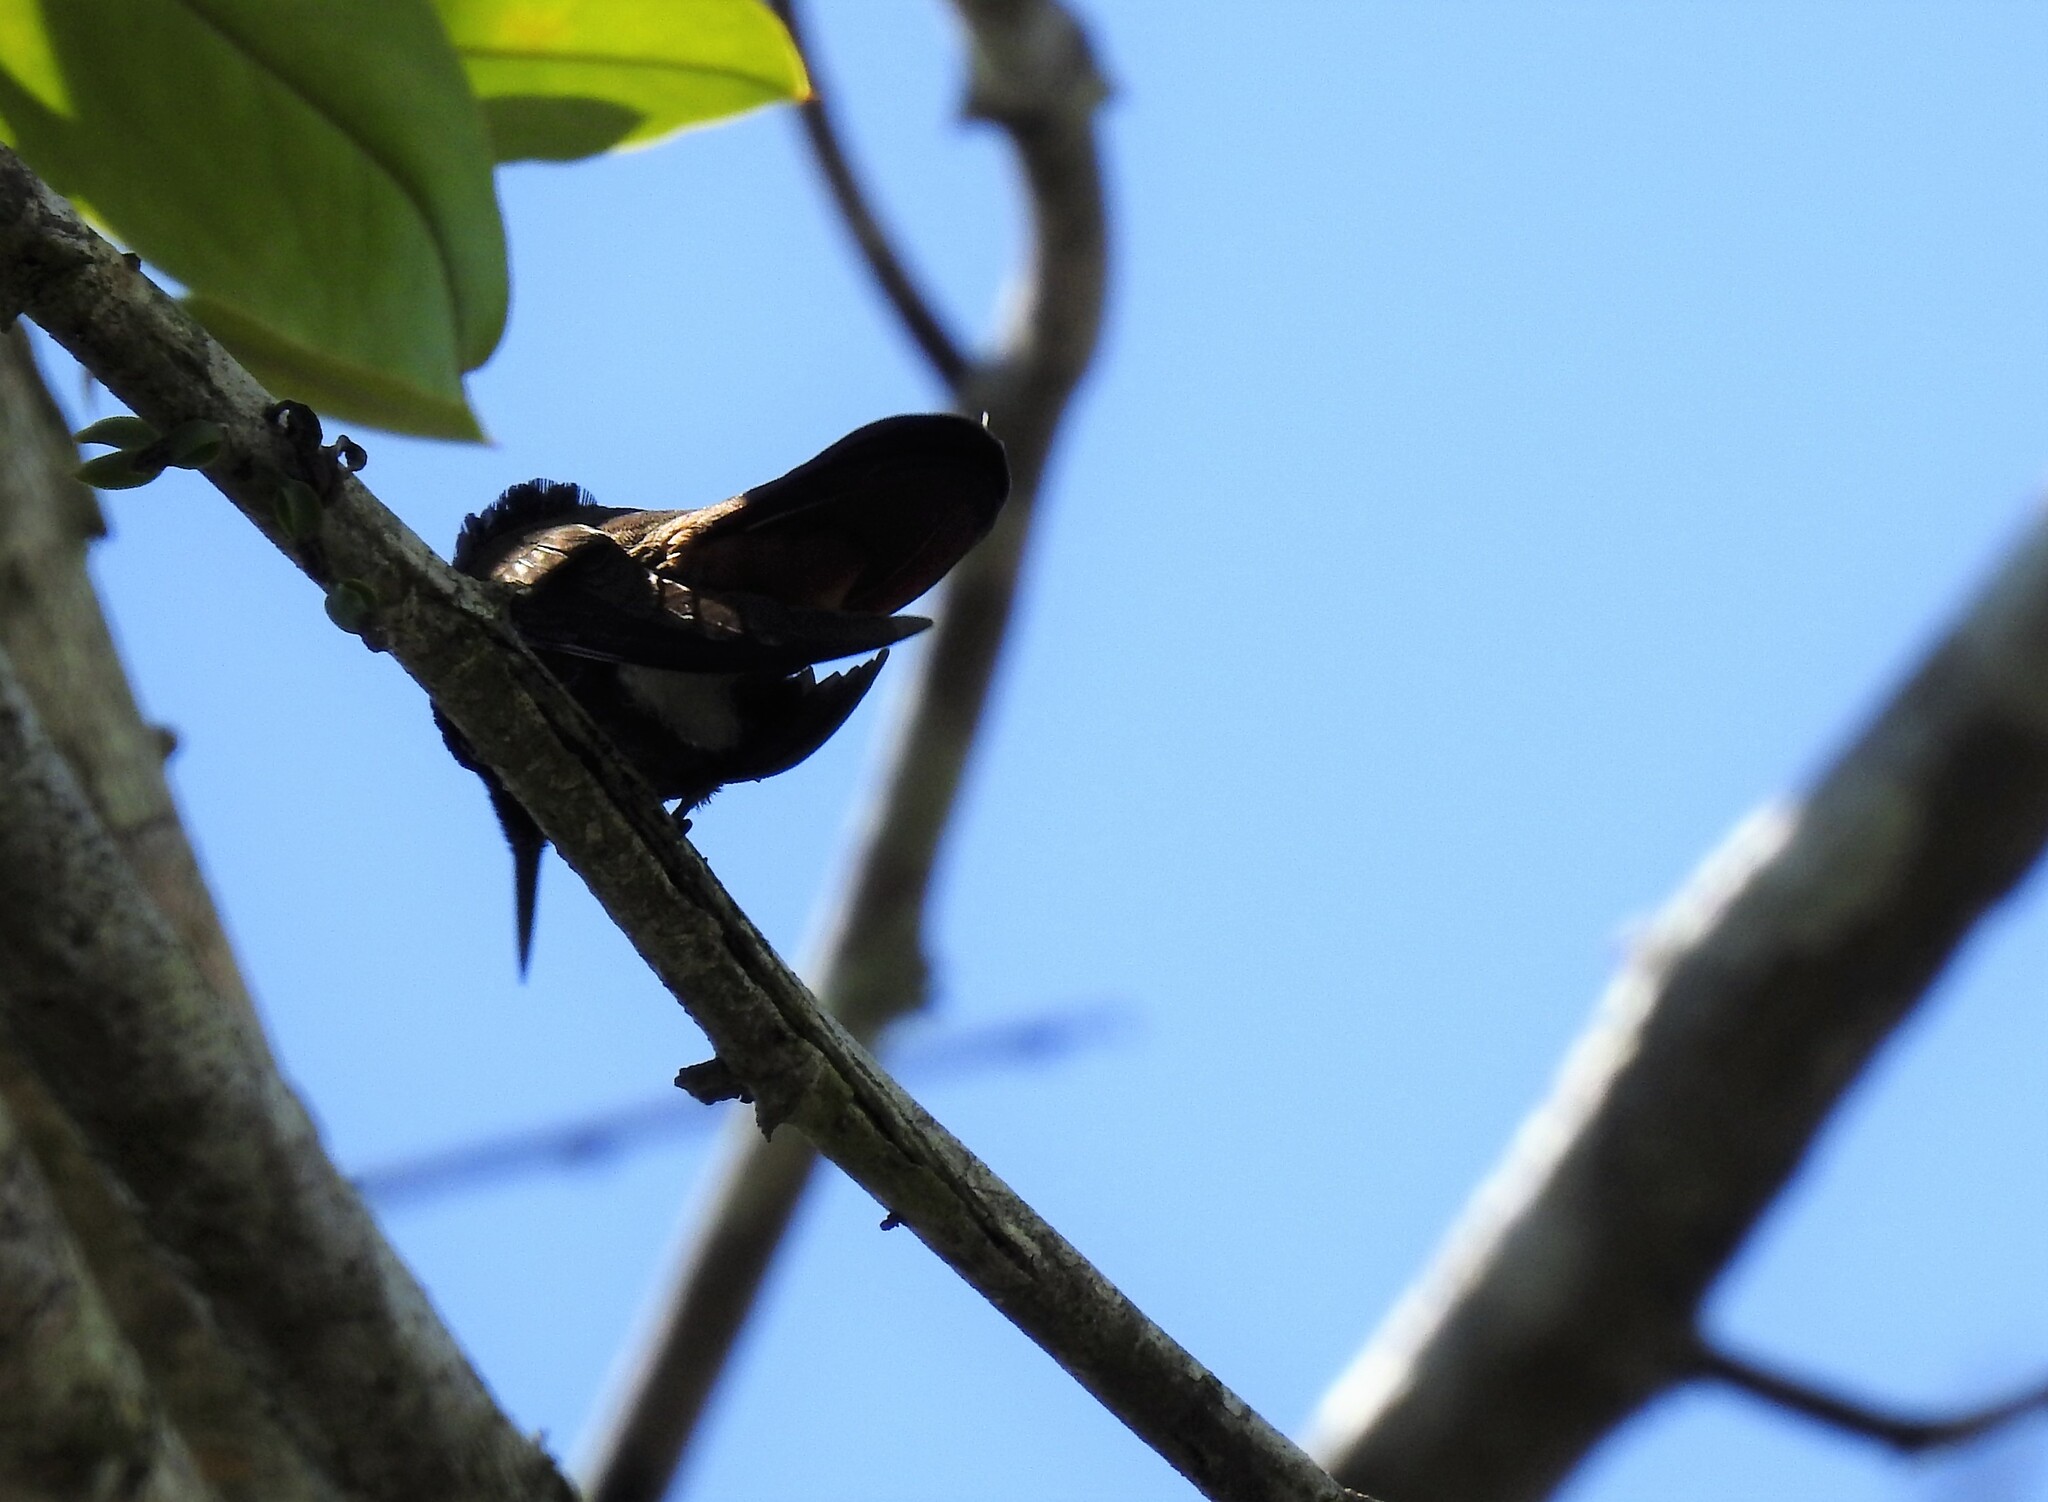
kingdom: Animalia
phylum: Chordata
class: Aves
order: Apodiformes
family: Trochilidae
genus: Chrysolampis
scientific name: Chrysolampis mosquitus
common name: Ruby-topaz hummingbird
